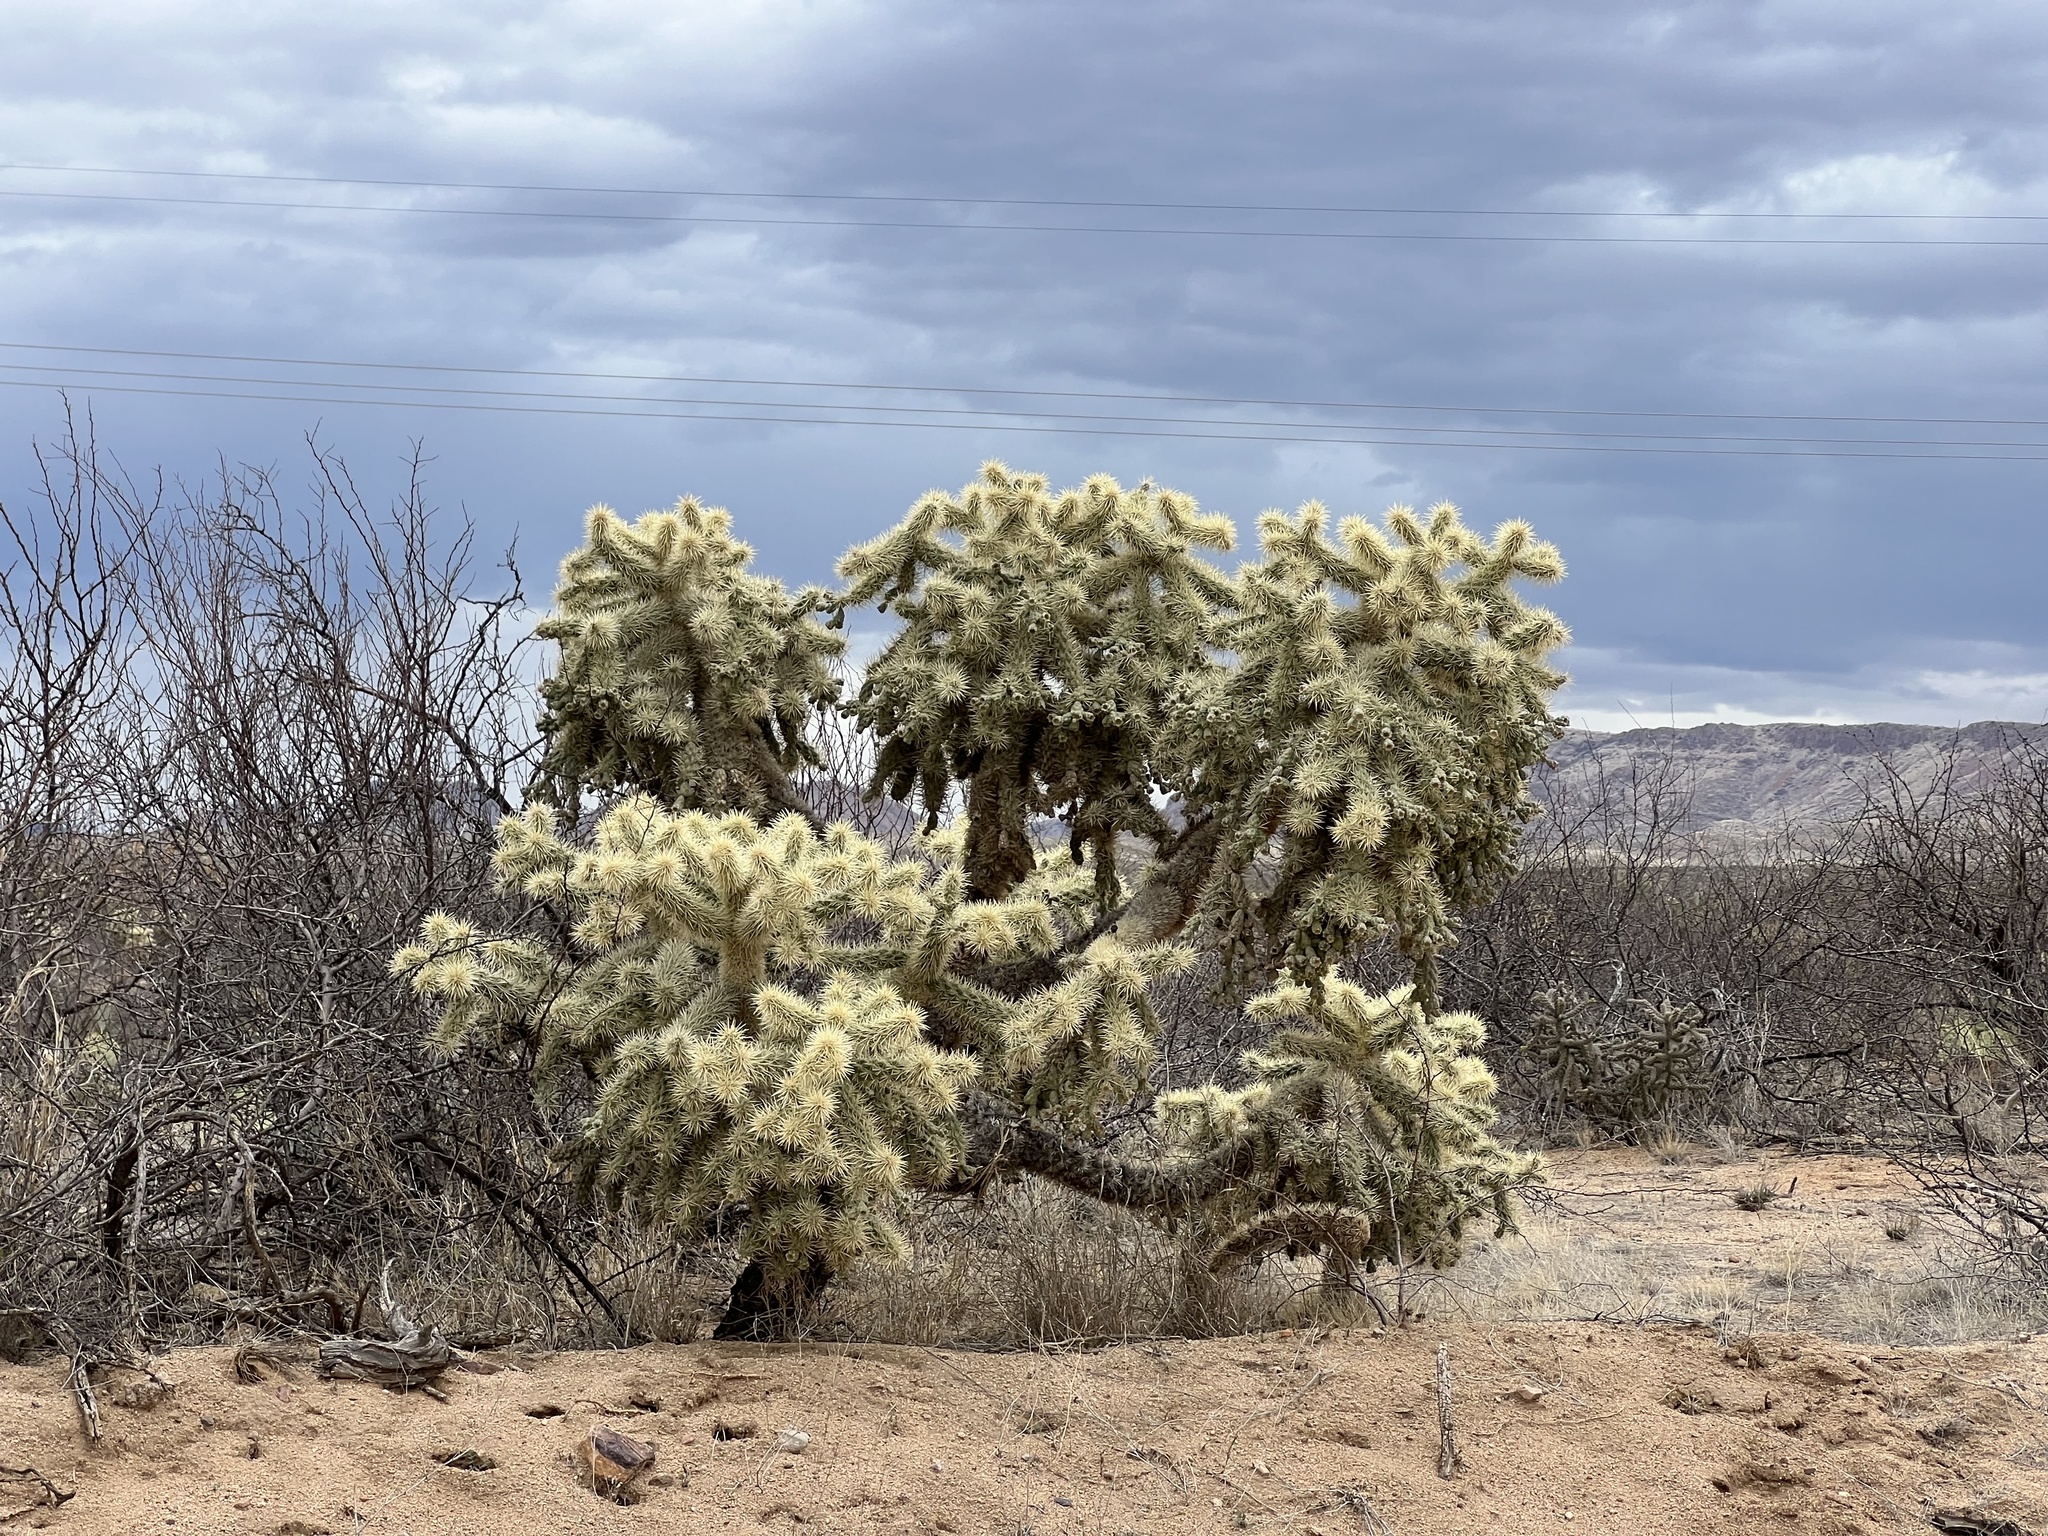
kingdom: Plantae
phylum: Tracheophyta
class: Magnoliopsida
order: Caryophyllales
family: Cactaceae
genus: Cylindropuntia
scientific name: Cylindropuntia fulgida
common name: Jumping cholla
